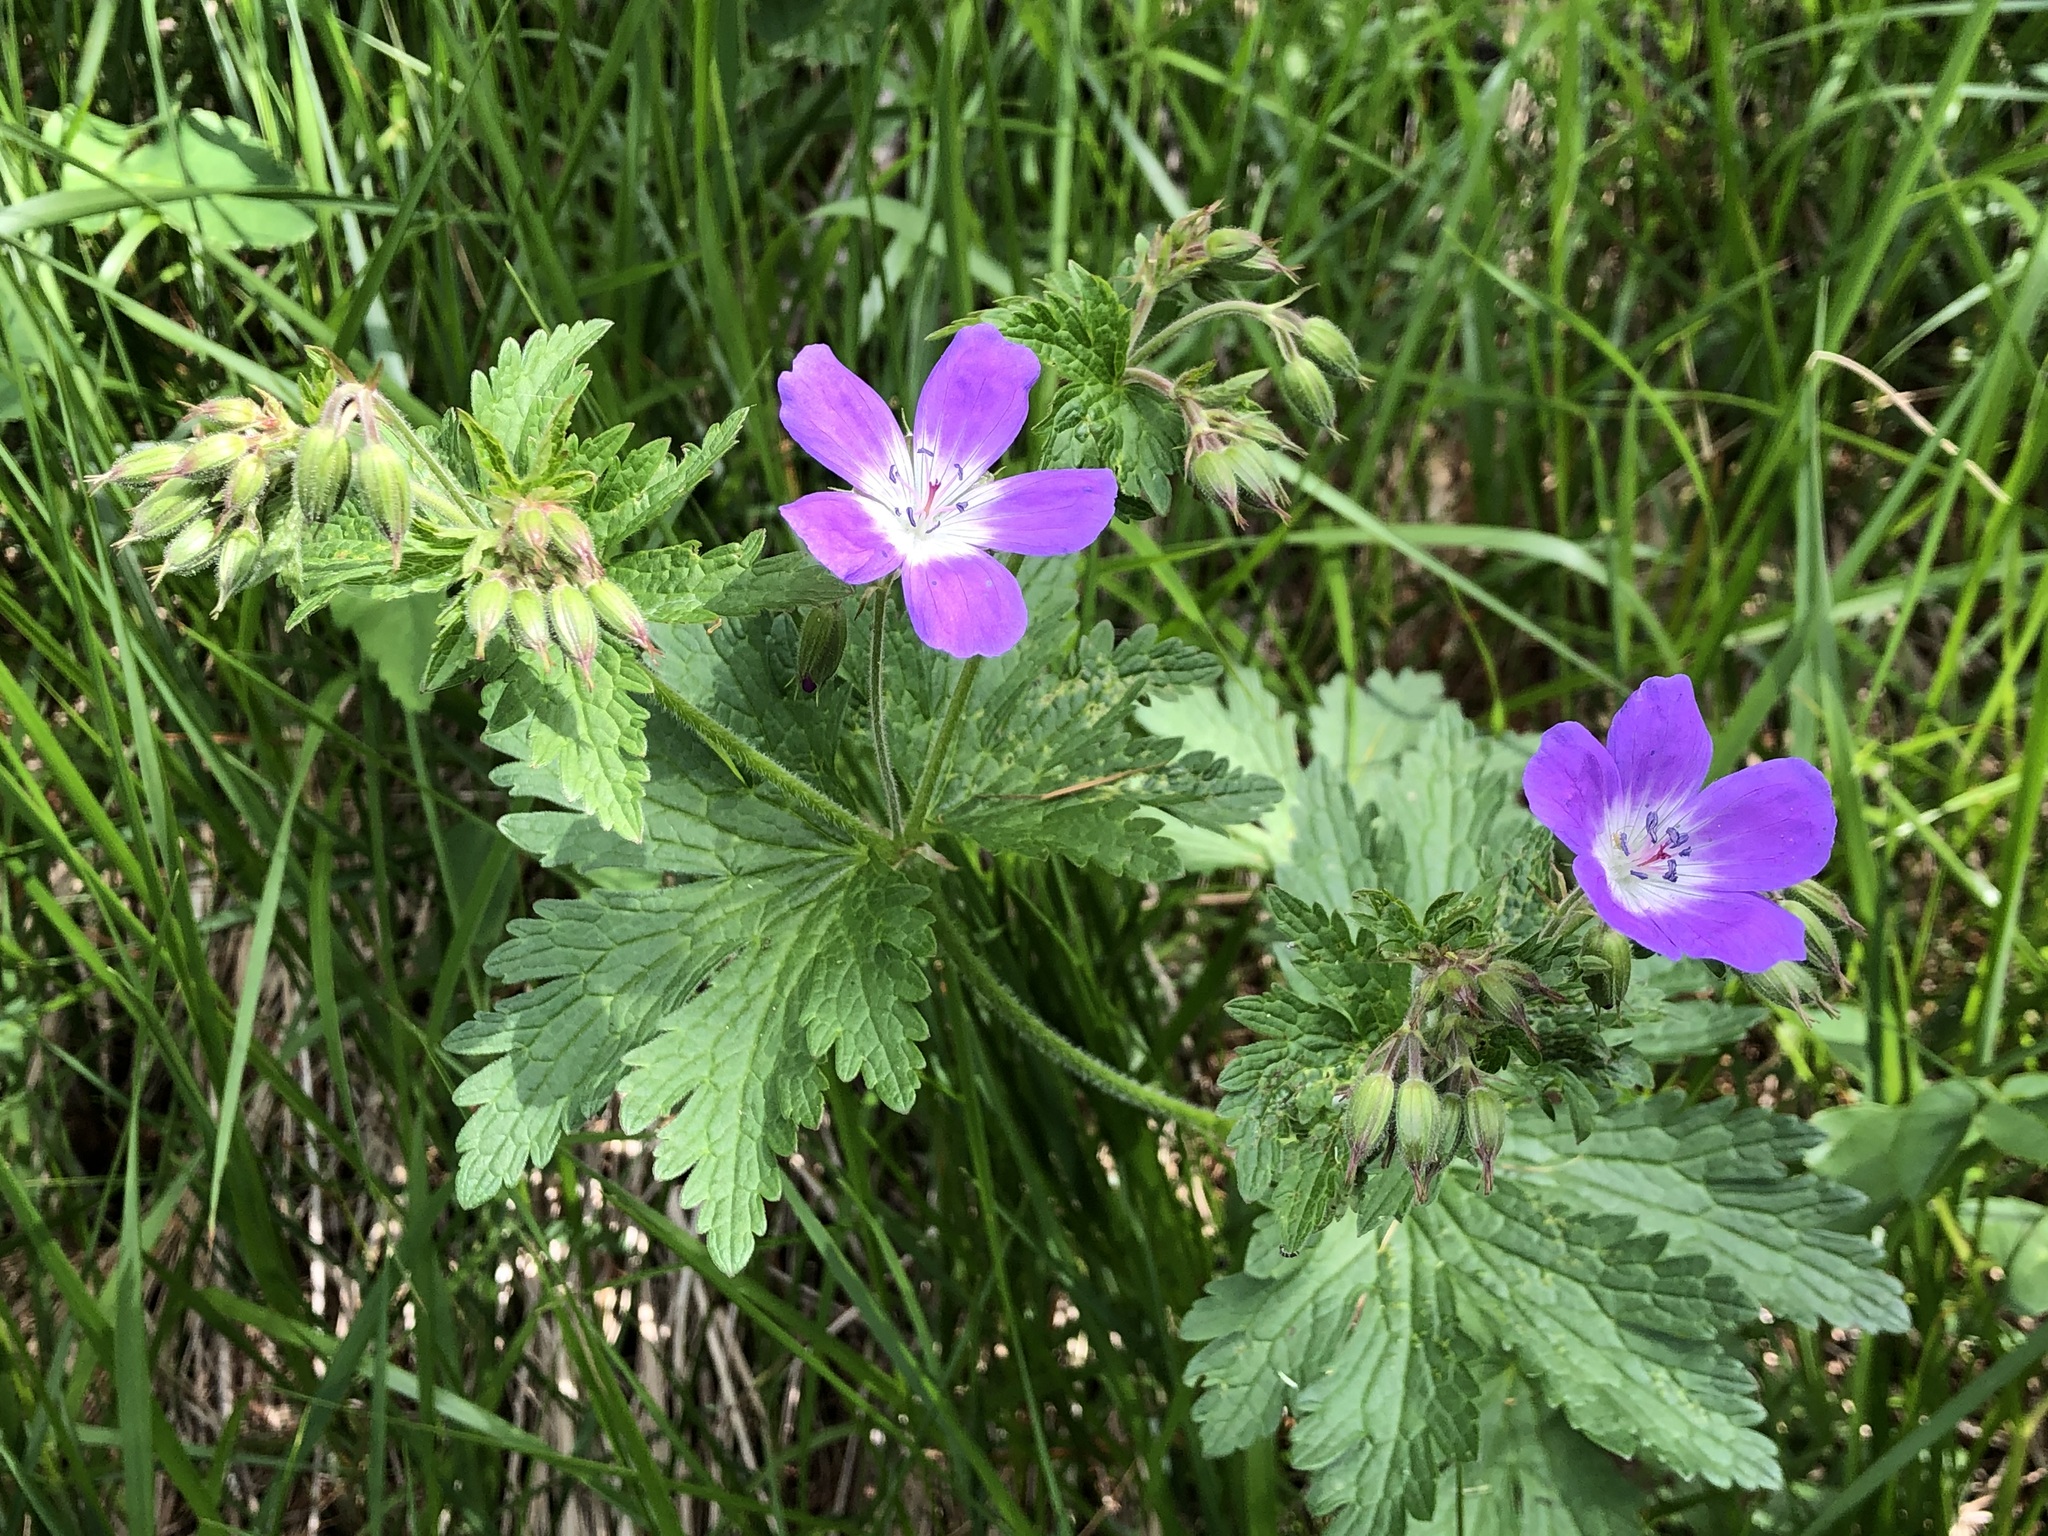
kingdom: Plantae
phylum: Tracheophyta
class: Magnoliopsida
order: Geraniales
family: Geraniaceae
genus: Geranium
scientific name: Geranium sylvaticum
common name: Wood crane's-bill
